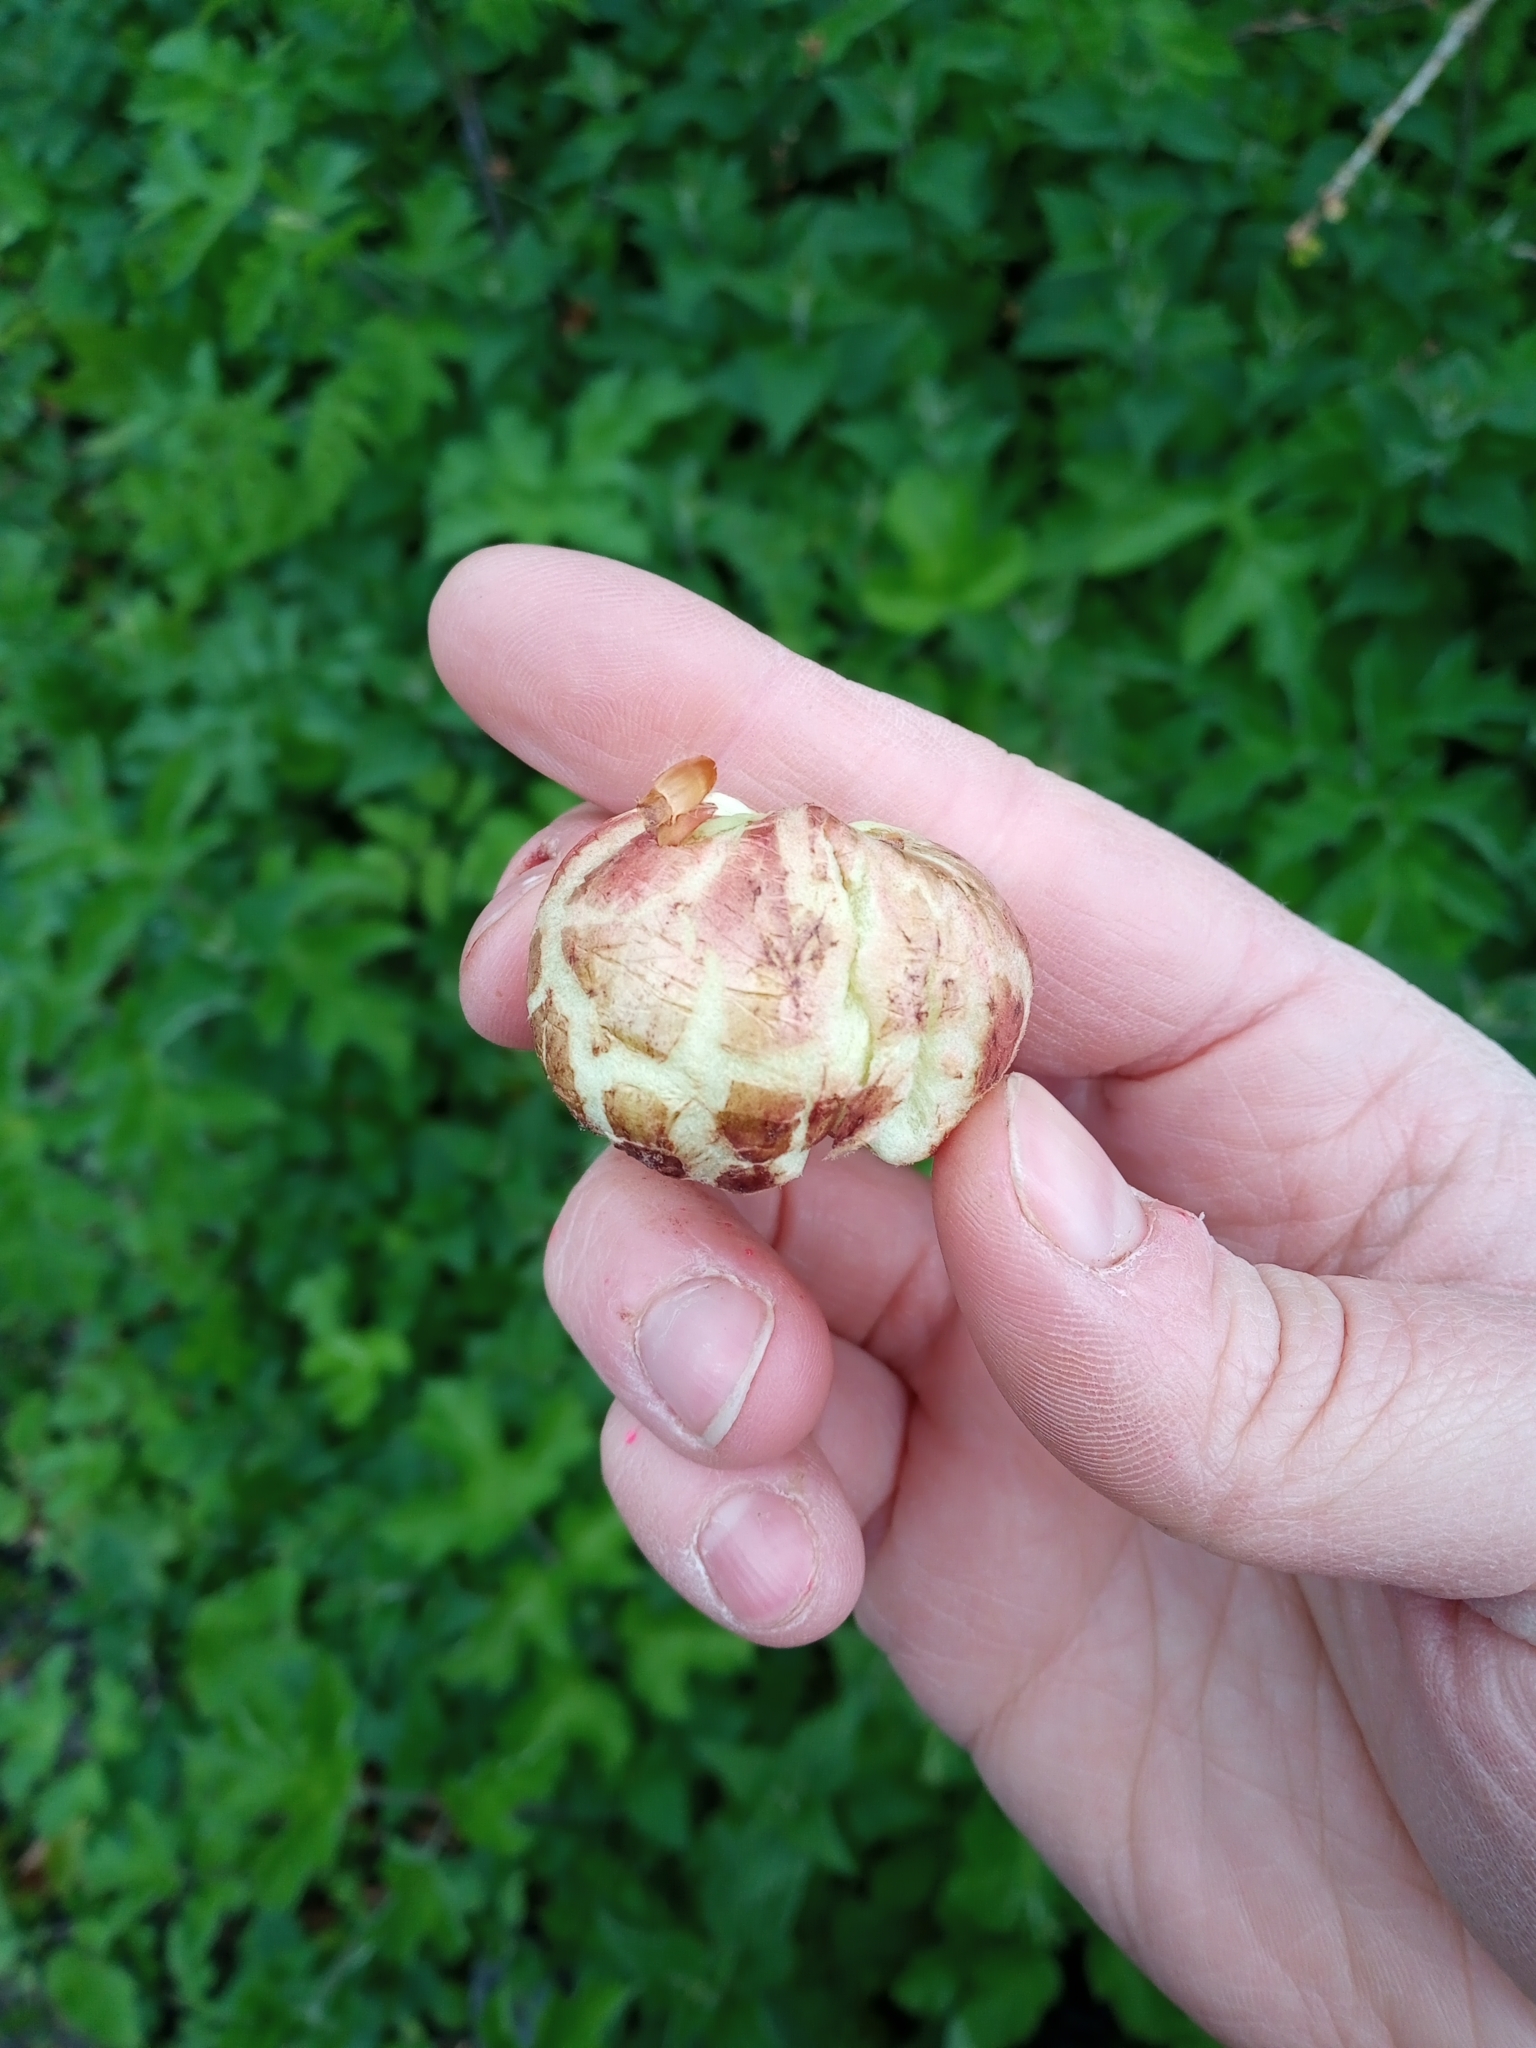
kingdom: Animalia
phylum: Arthropoda
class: Insecta
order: Hymenoptera
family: Cynipidae
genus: Biorhiza
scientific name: Biorhiza pallida
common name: Oak apple
